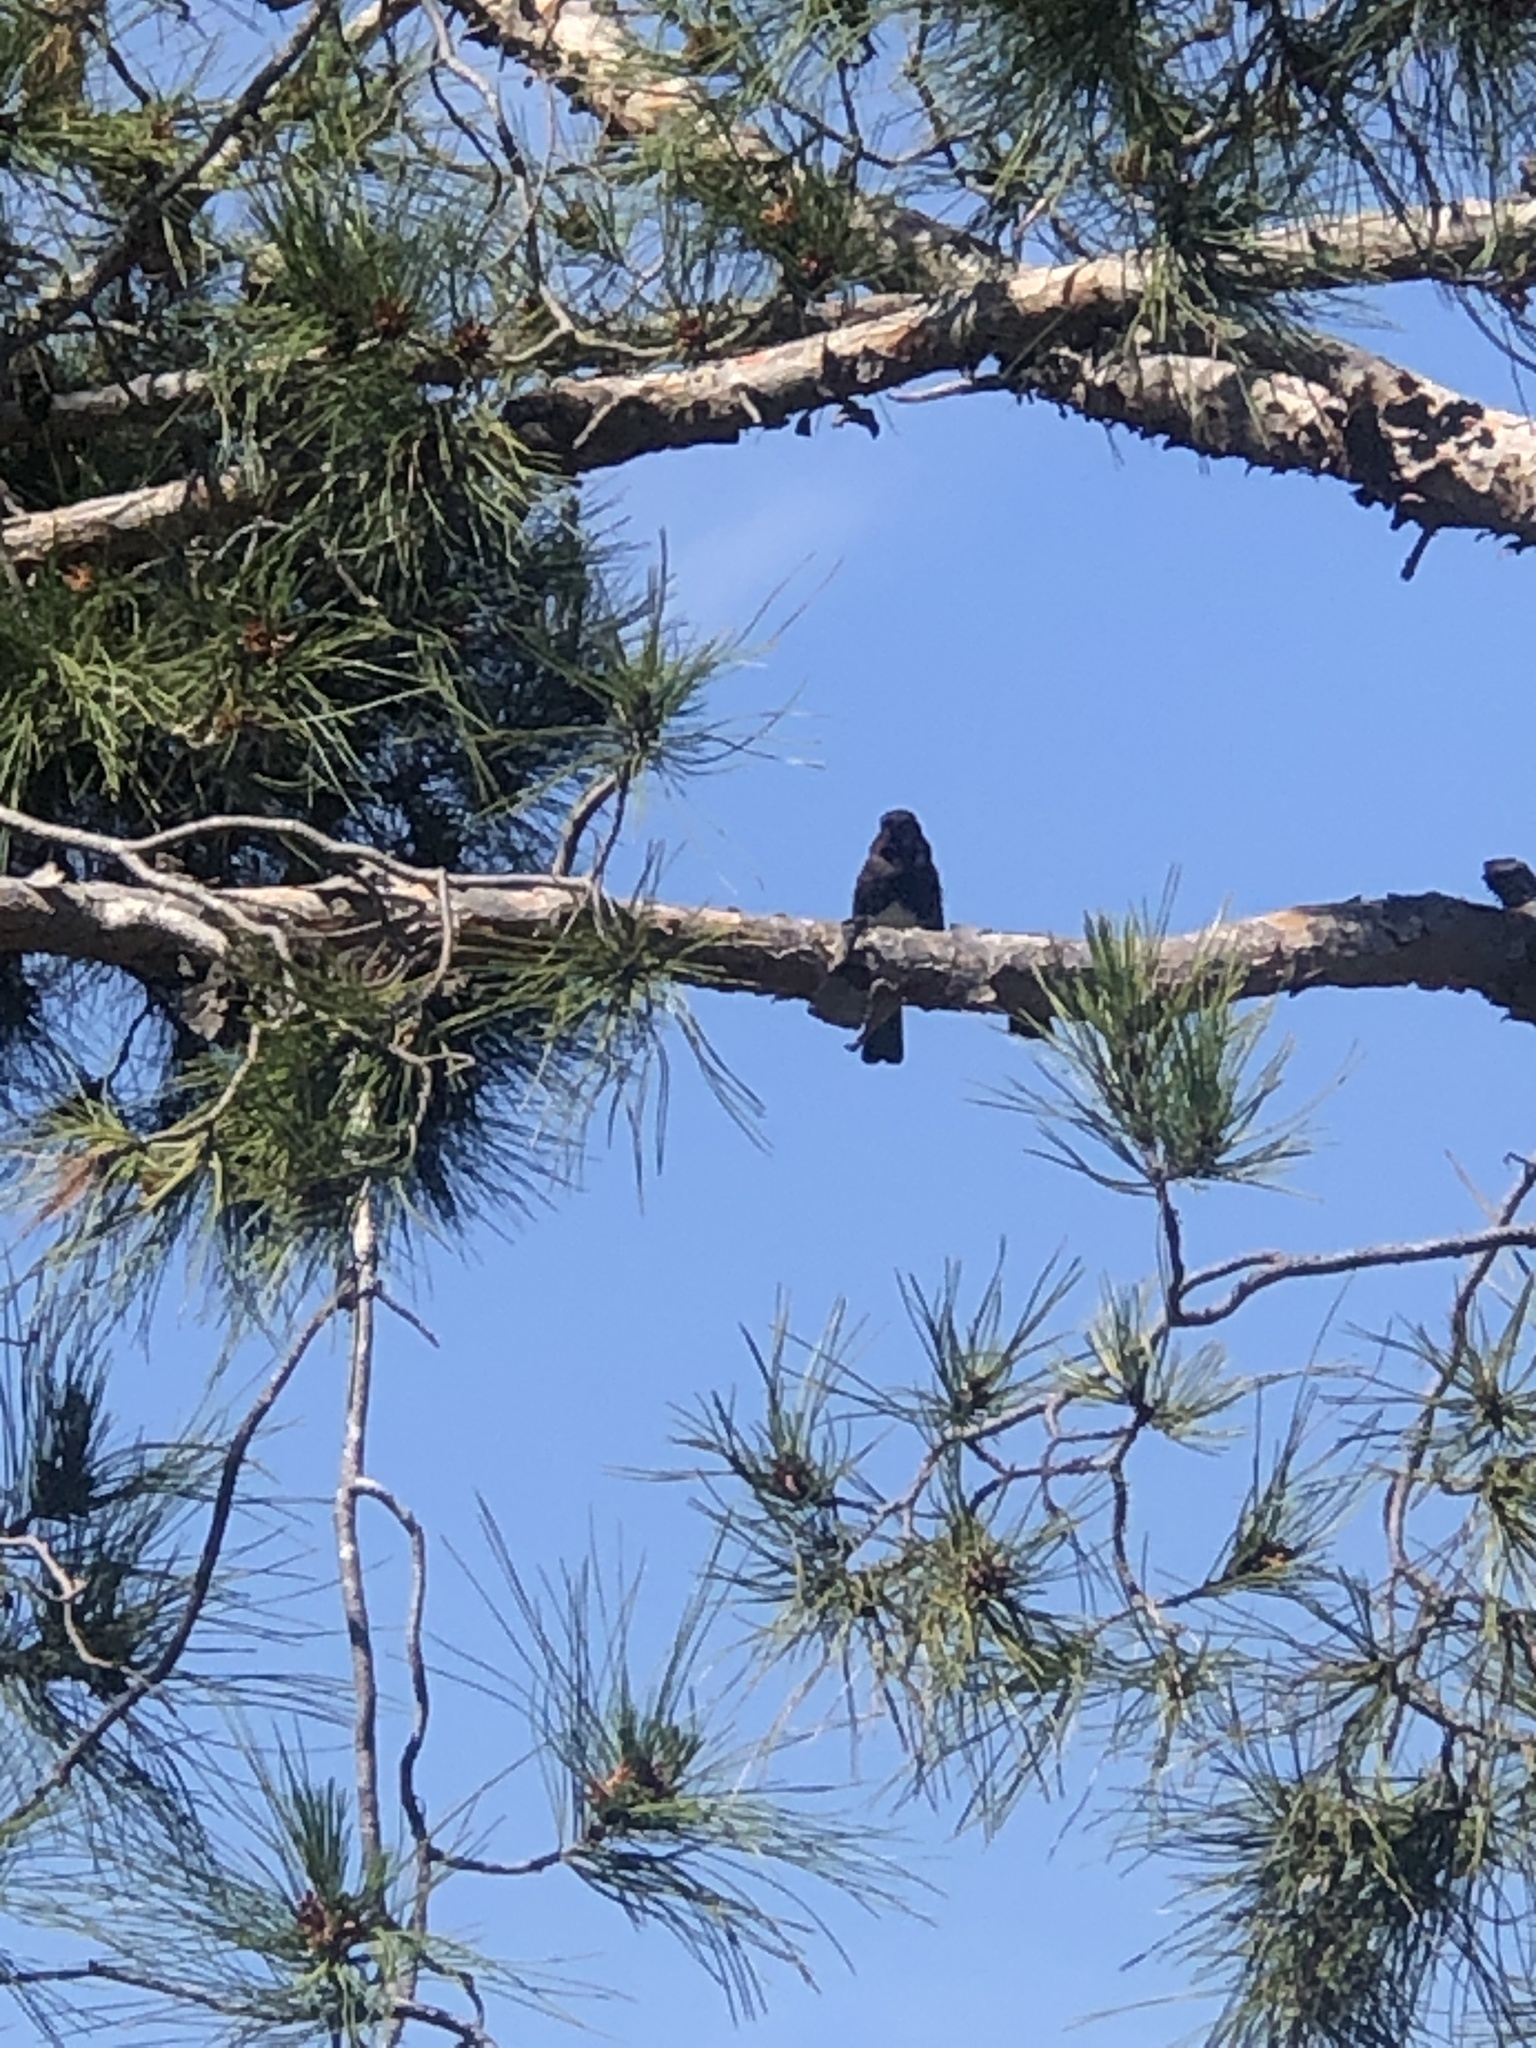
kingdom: Animalia
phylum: Chordata
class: Aves
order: Passeriformes
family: Tyrannidae
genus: Sayornis
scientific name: Sayornis nigricans
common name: Black phoebe
